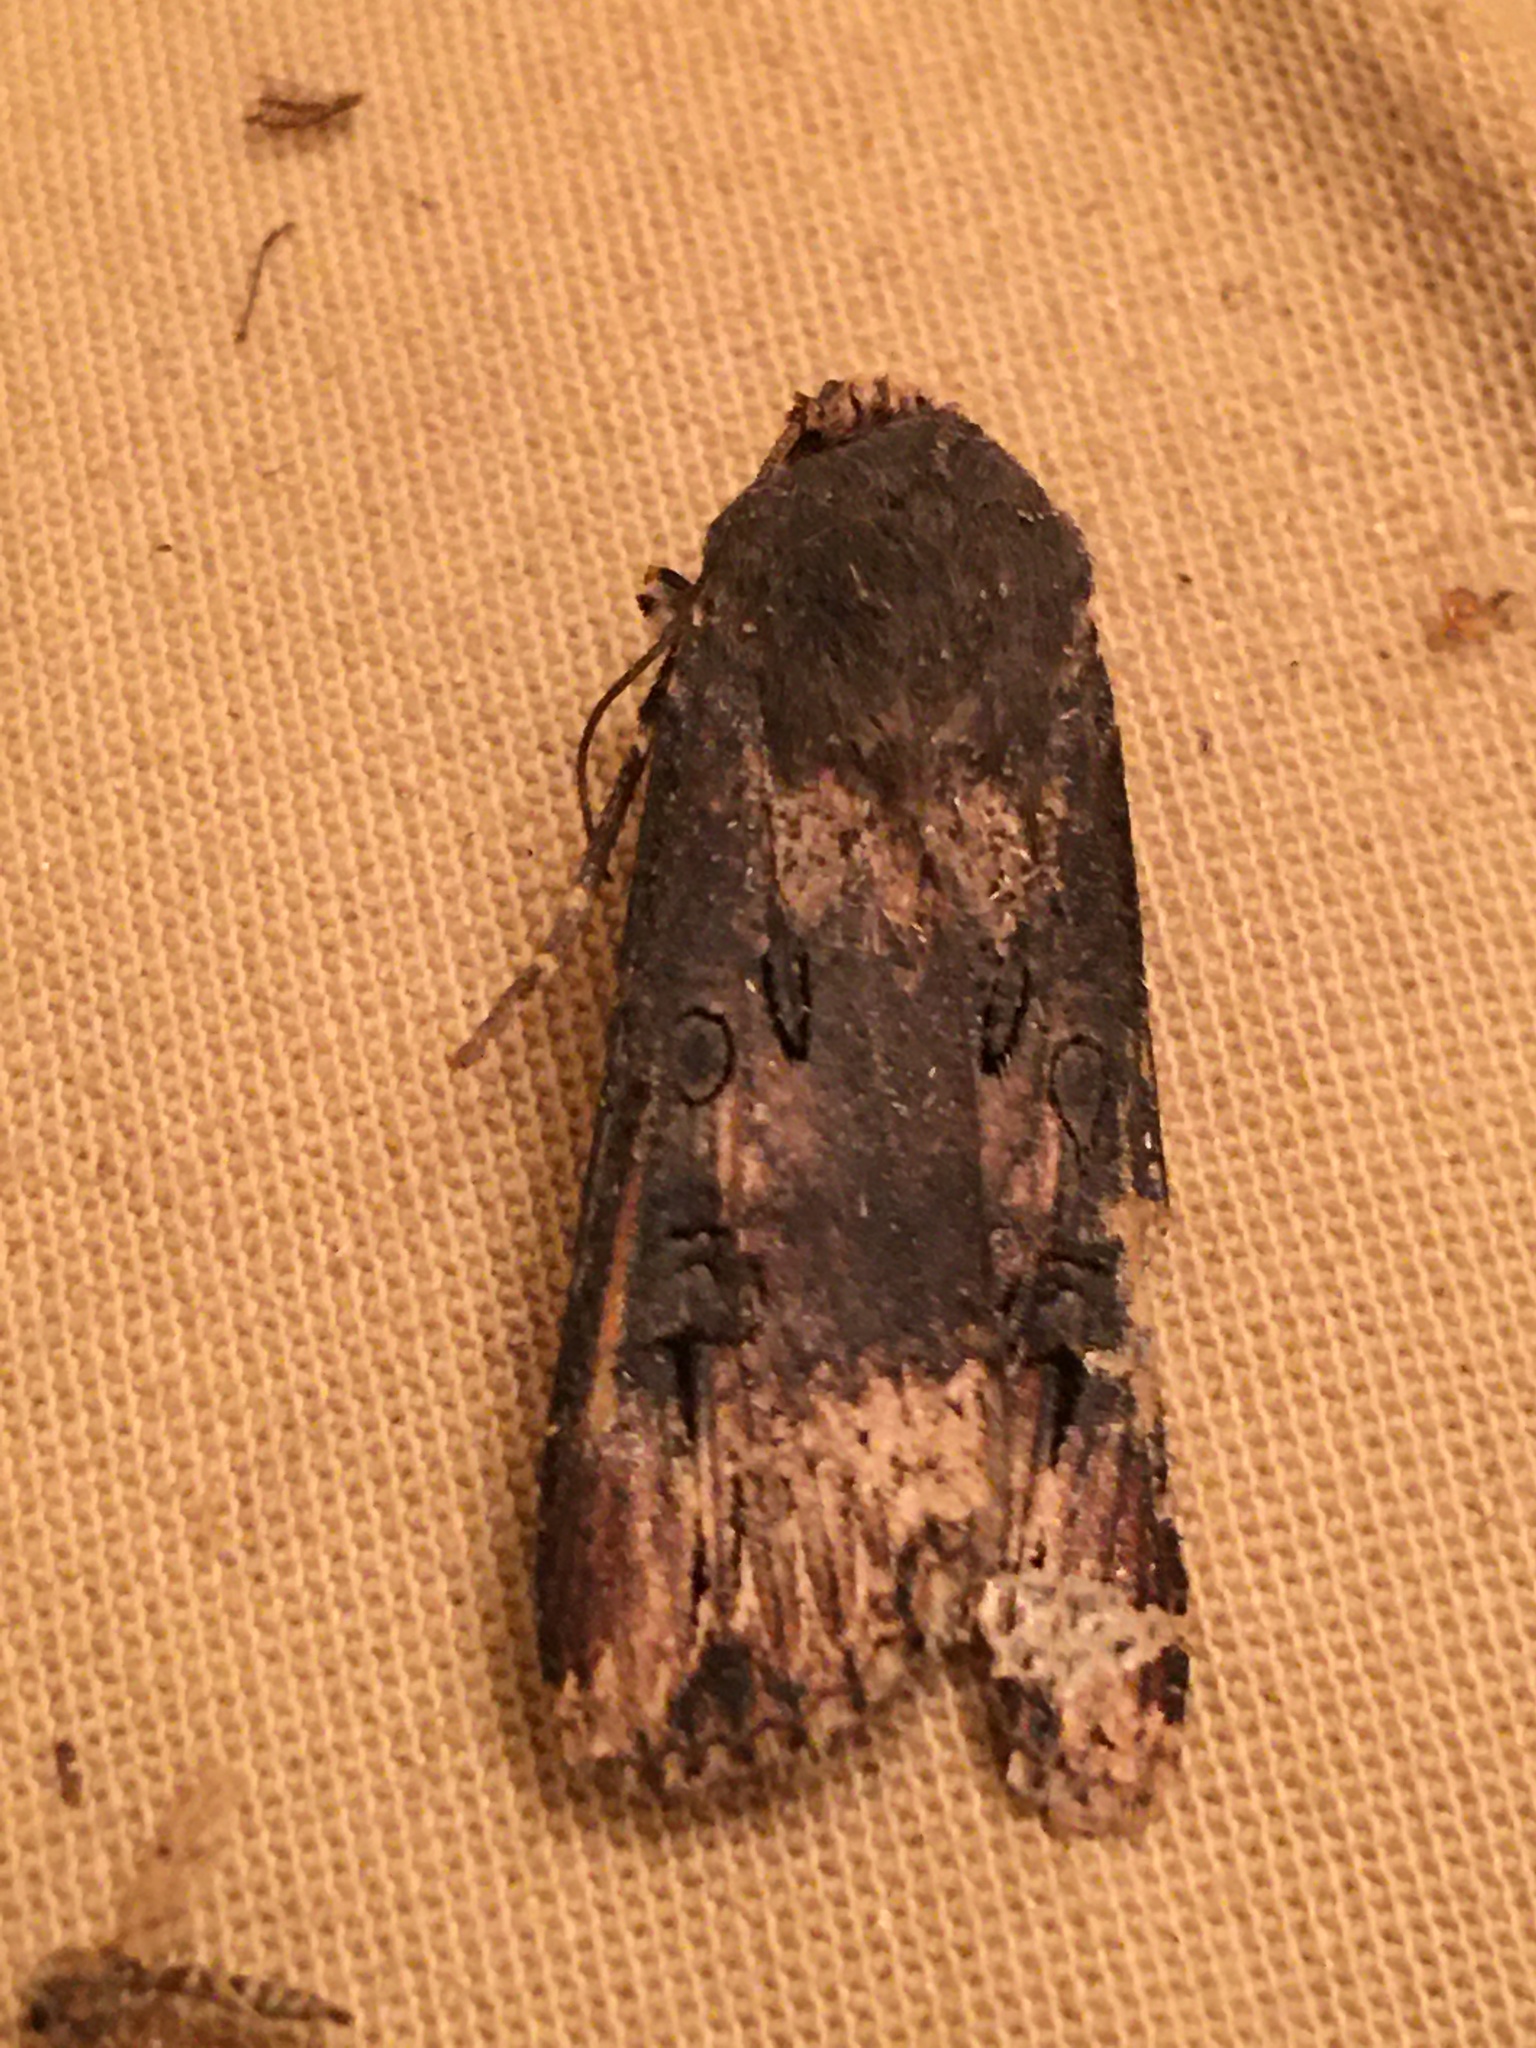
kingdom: Animalia
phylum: Arthropoda
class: Insecta
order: Lepidoptera
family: Noctuidae
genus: Agrotis
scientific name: Agrotis ipsilon
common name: Dark sword-grass
